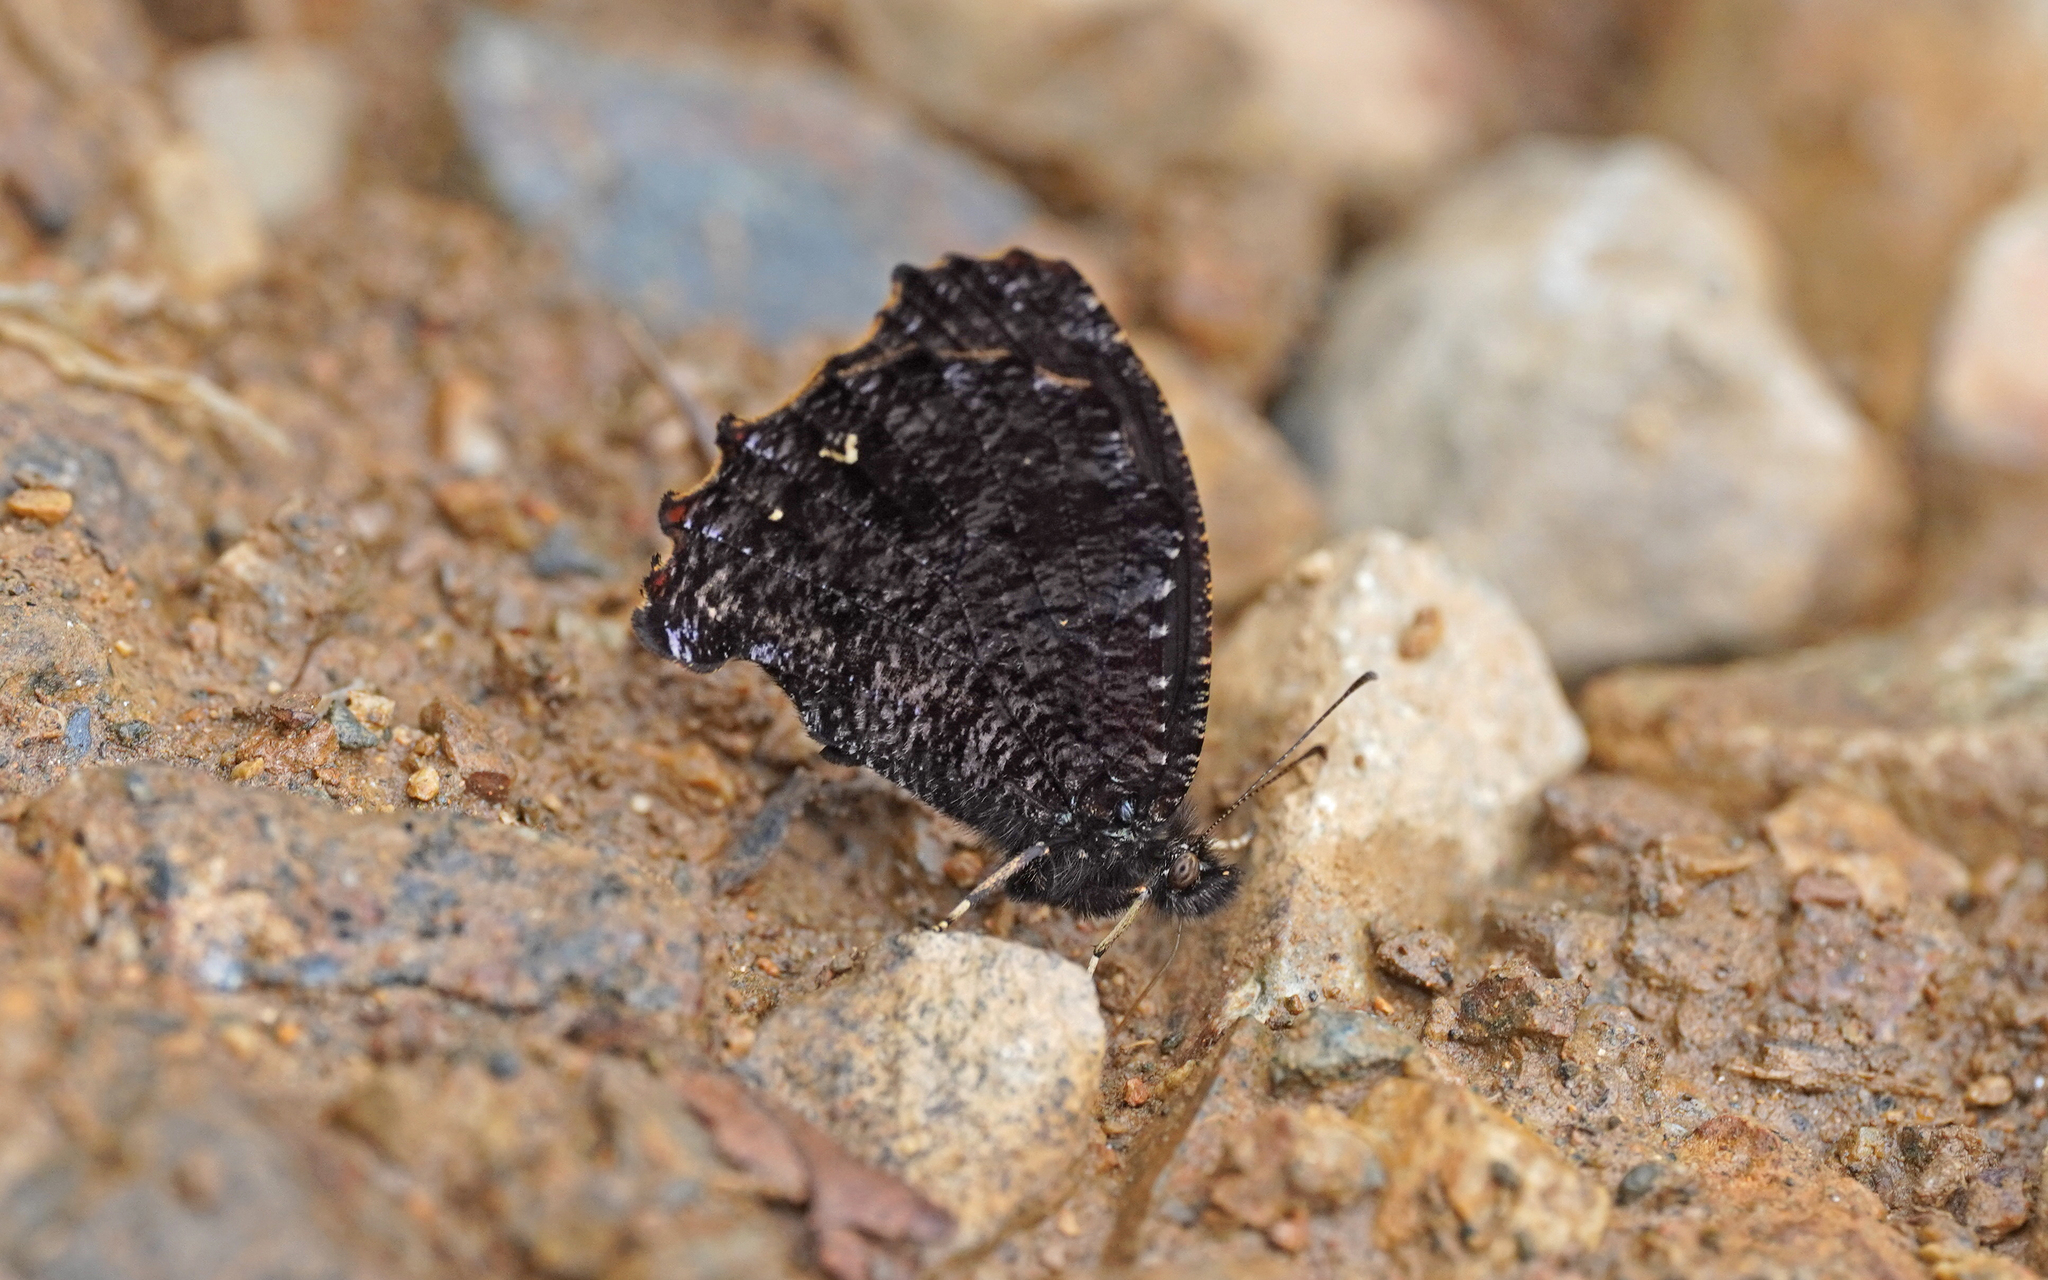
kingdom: Animalia
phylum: Arthropoda
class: Insecta
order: Lepidoptera
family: Nymphalidae
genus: Steroma
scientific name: Steroma modesta
